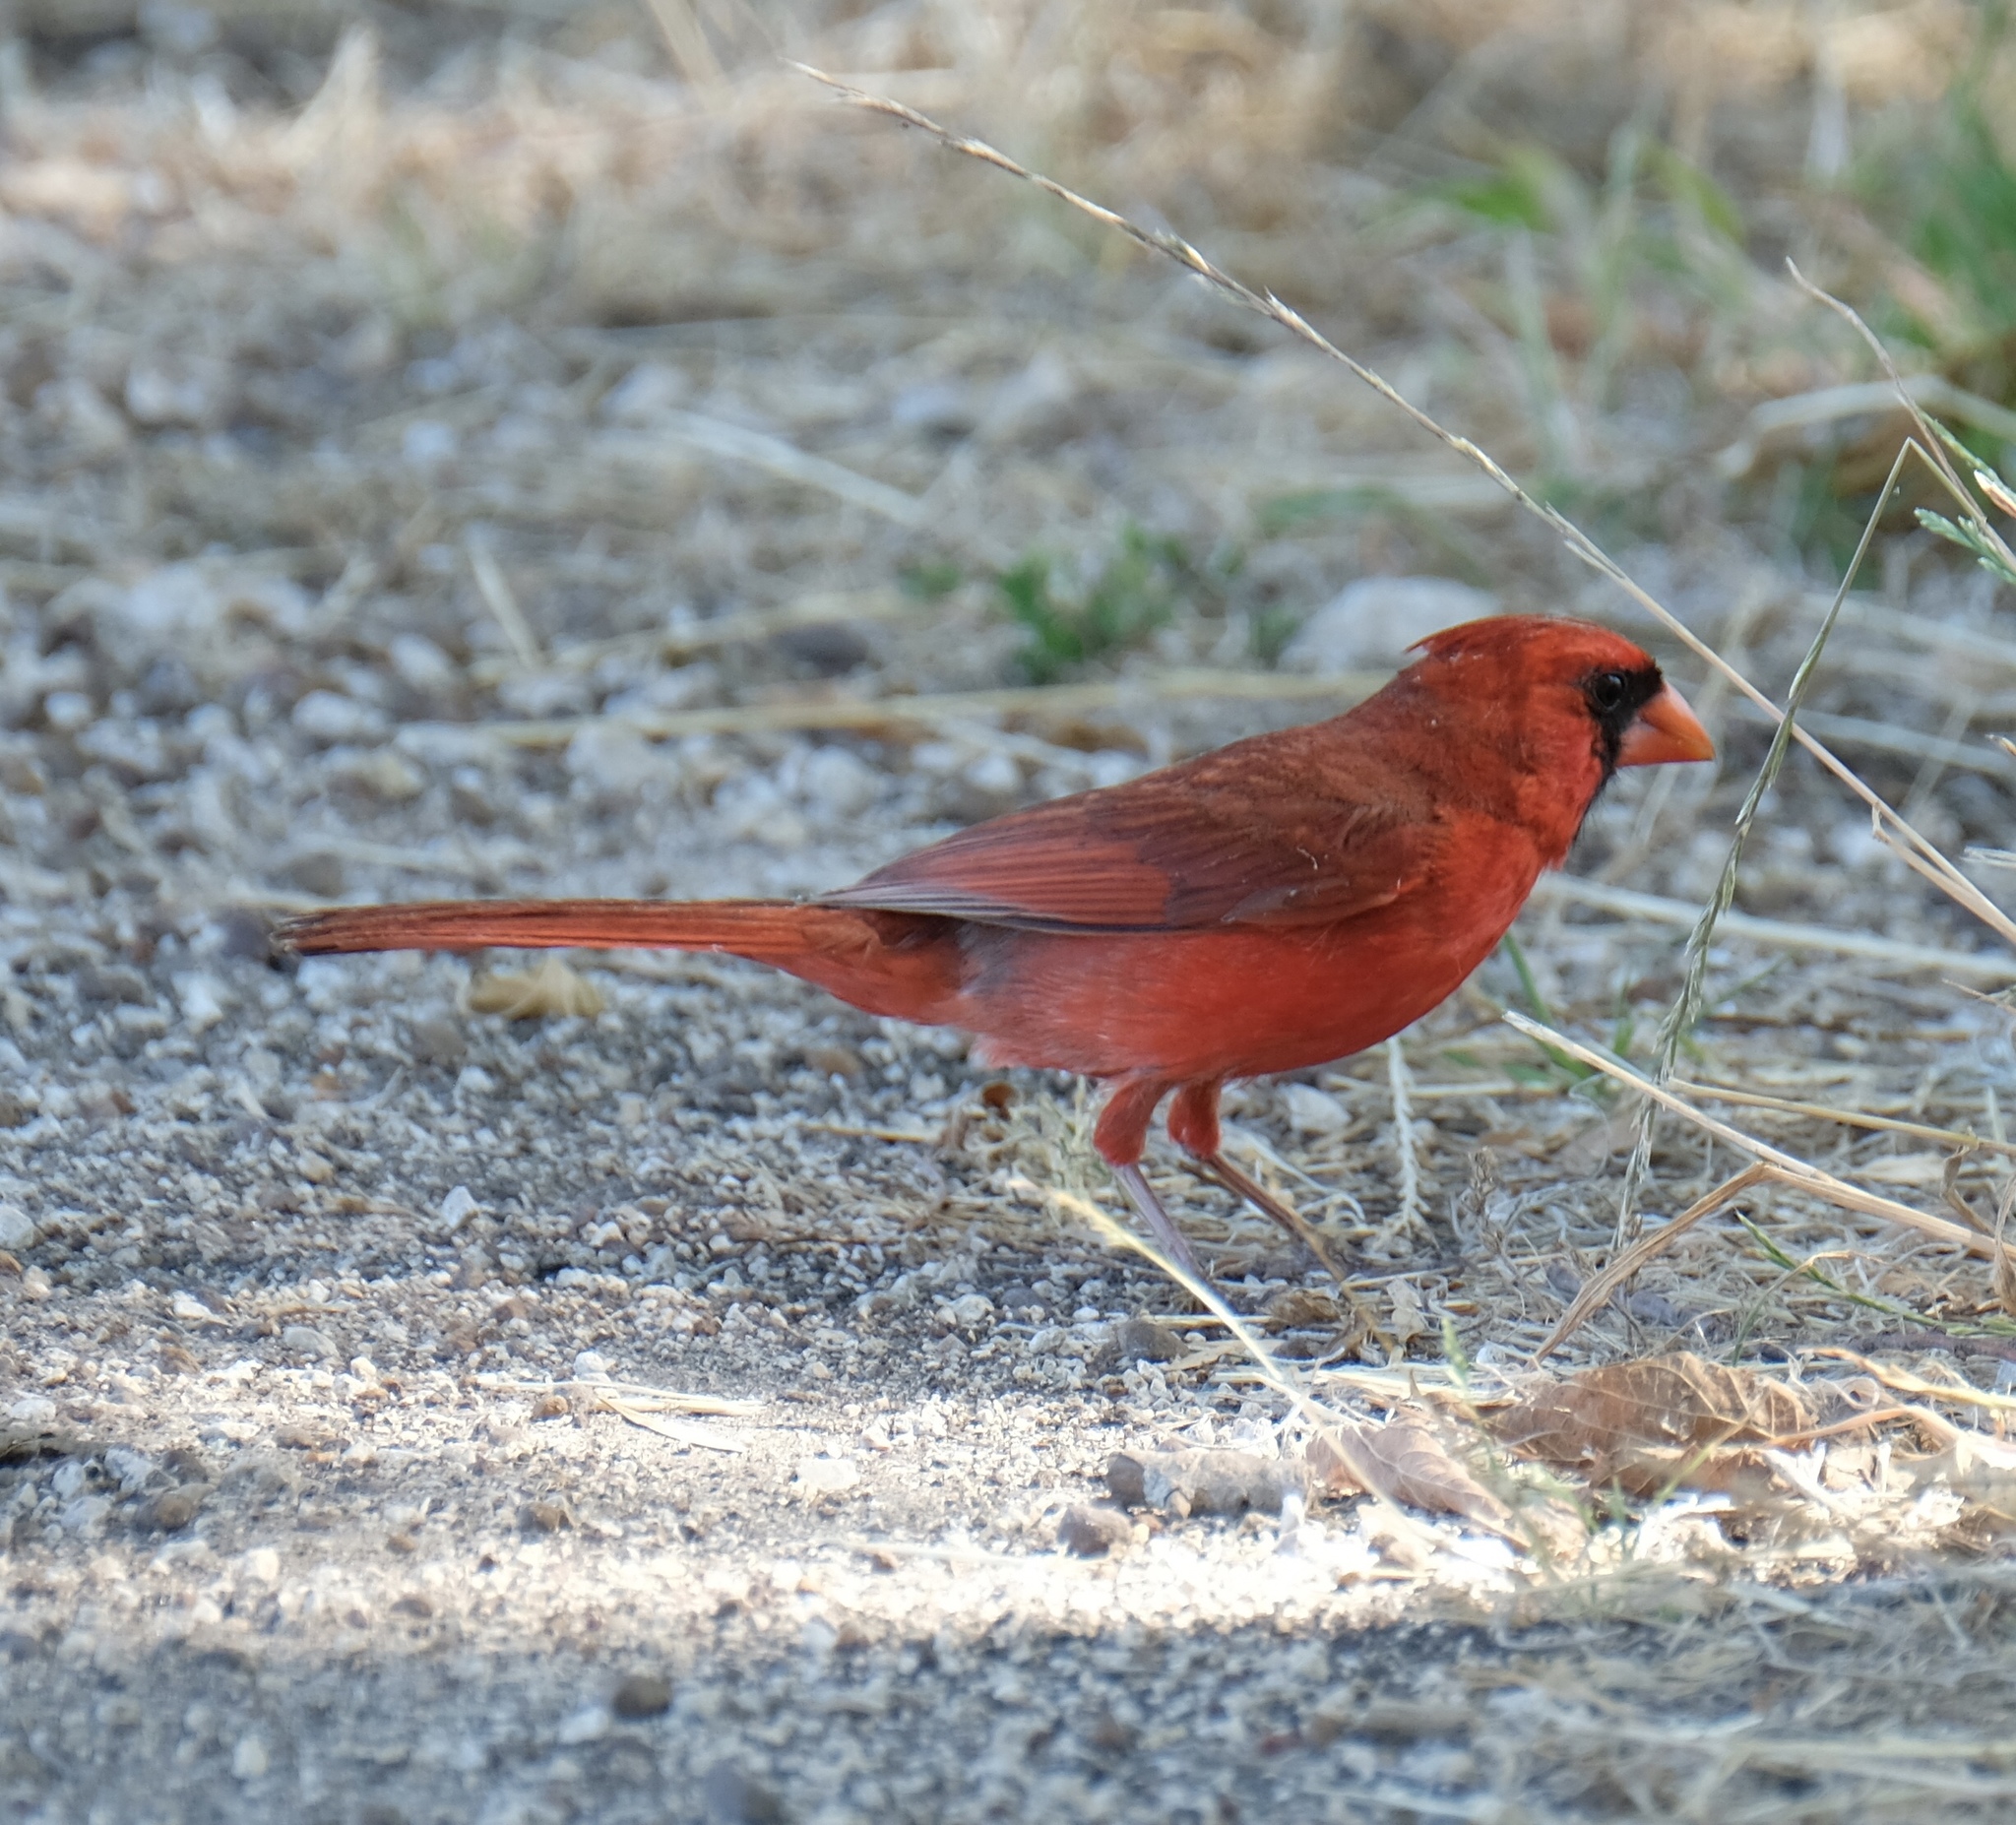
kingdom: Animalia
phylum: Chordata
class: Aves
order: Passeriformes
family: Cardinalidae
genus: Cardinalis
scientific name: Cardinalis cardinalis
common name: Northern cardinal
